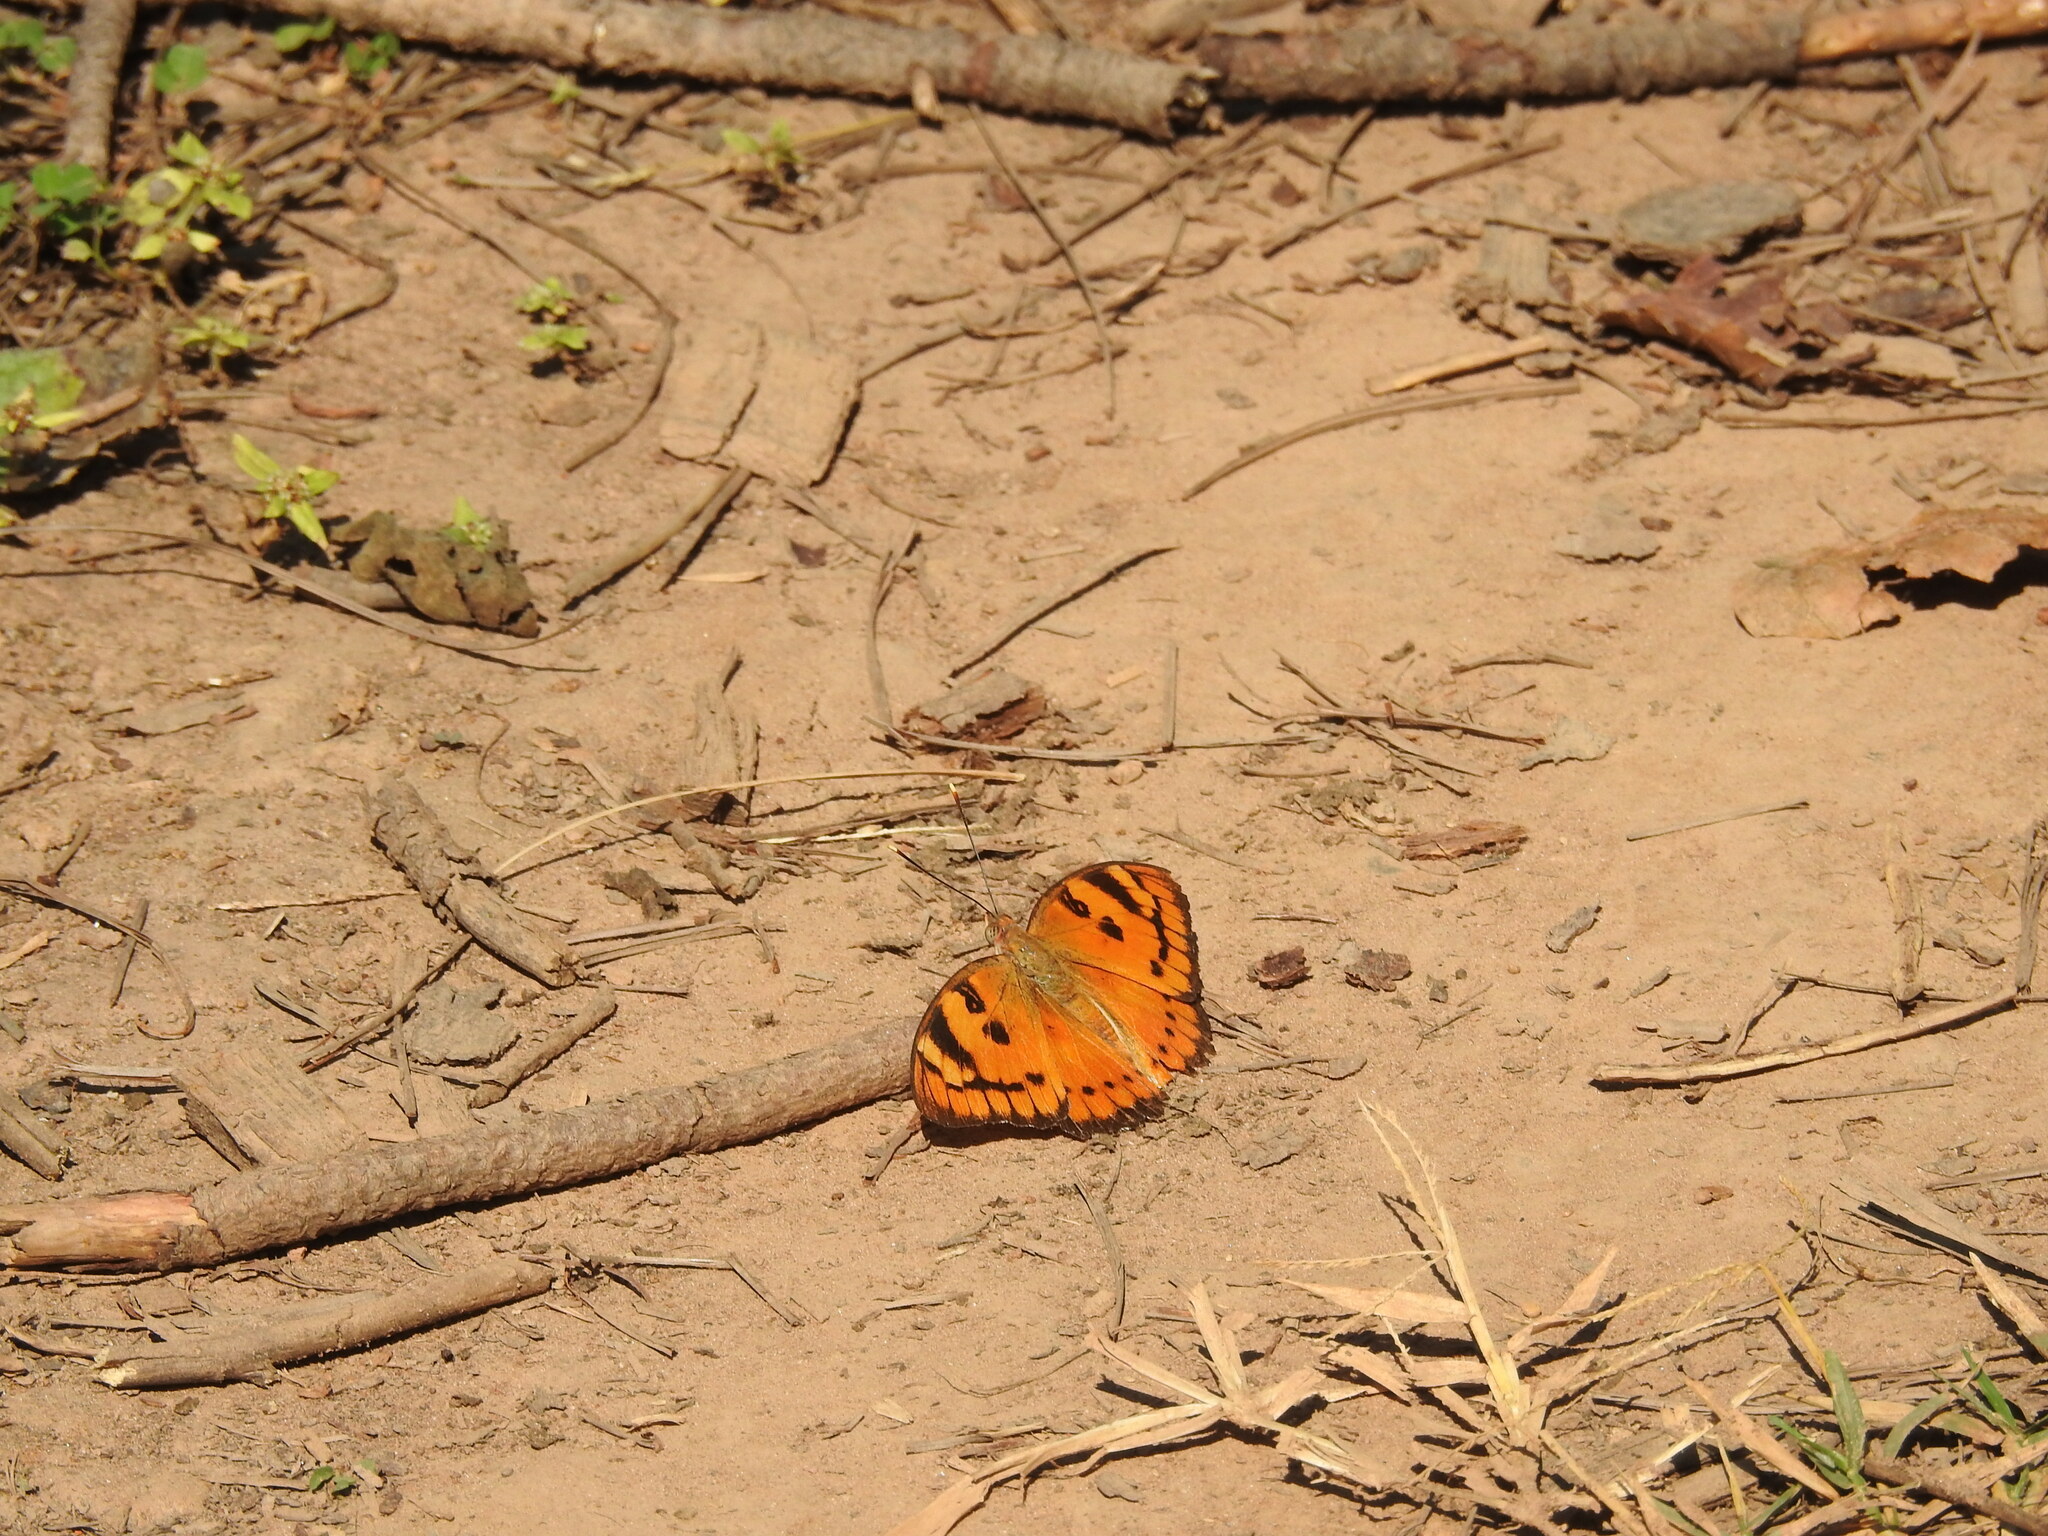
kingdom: Animalia
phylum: Arthropoda
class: Insecta
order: Lepidoptera
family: Nymphalidae
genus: Euthalia
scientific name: Euthalia nais
